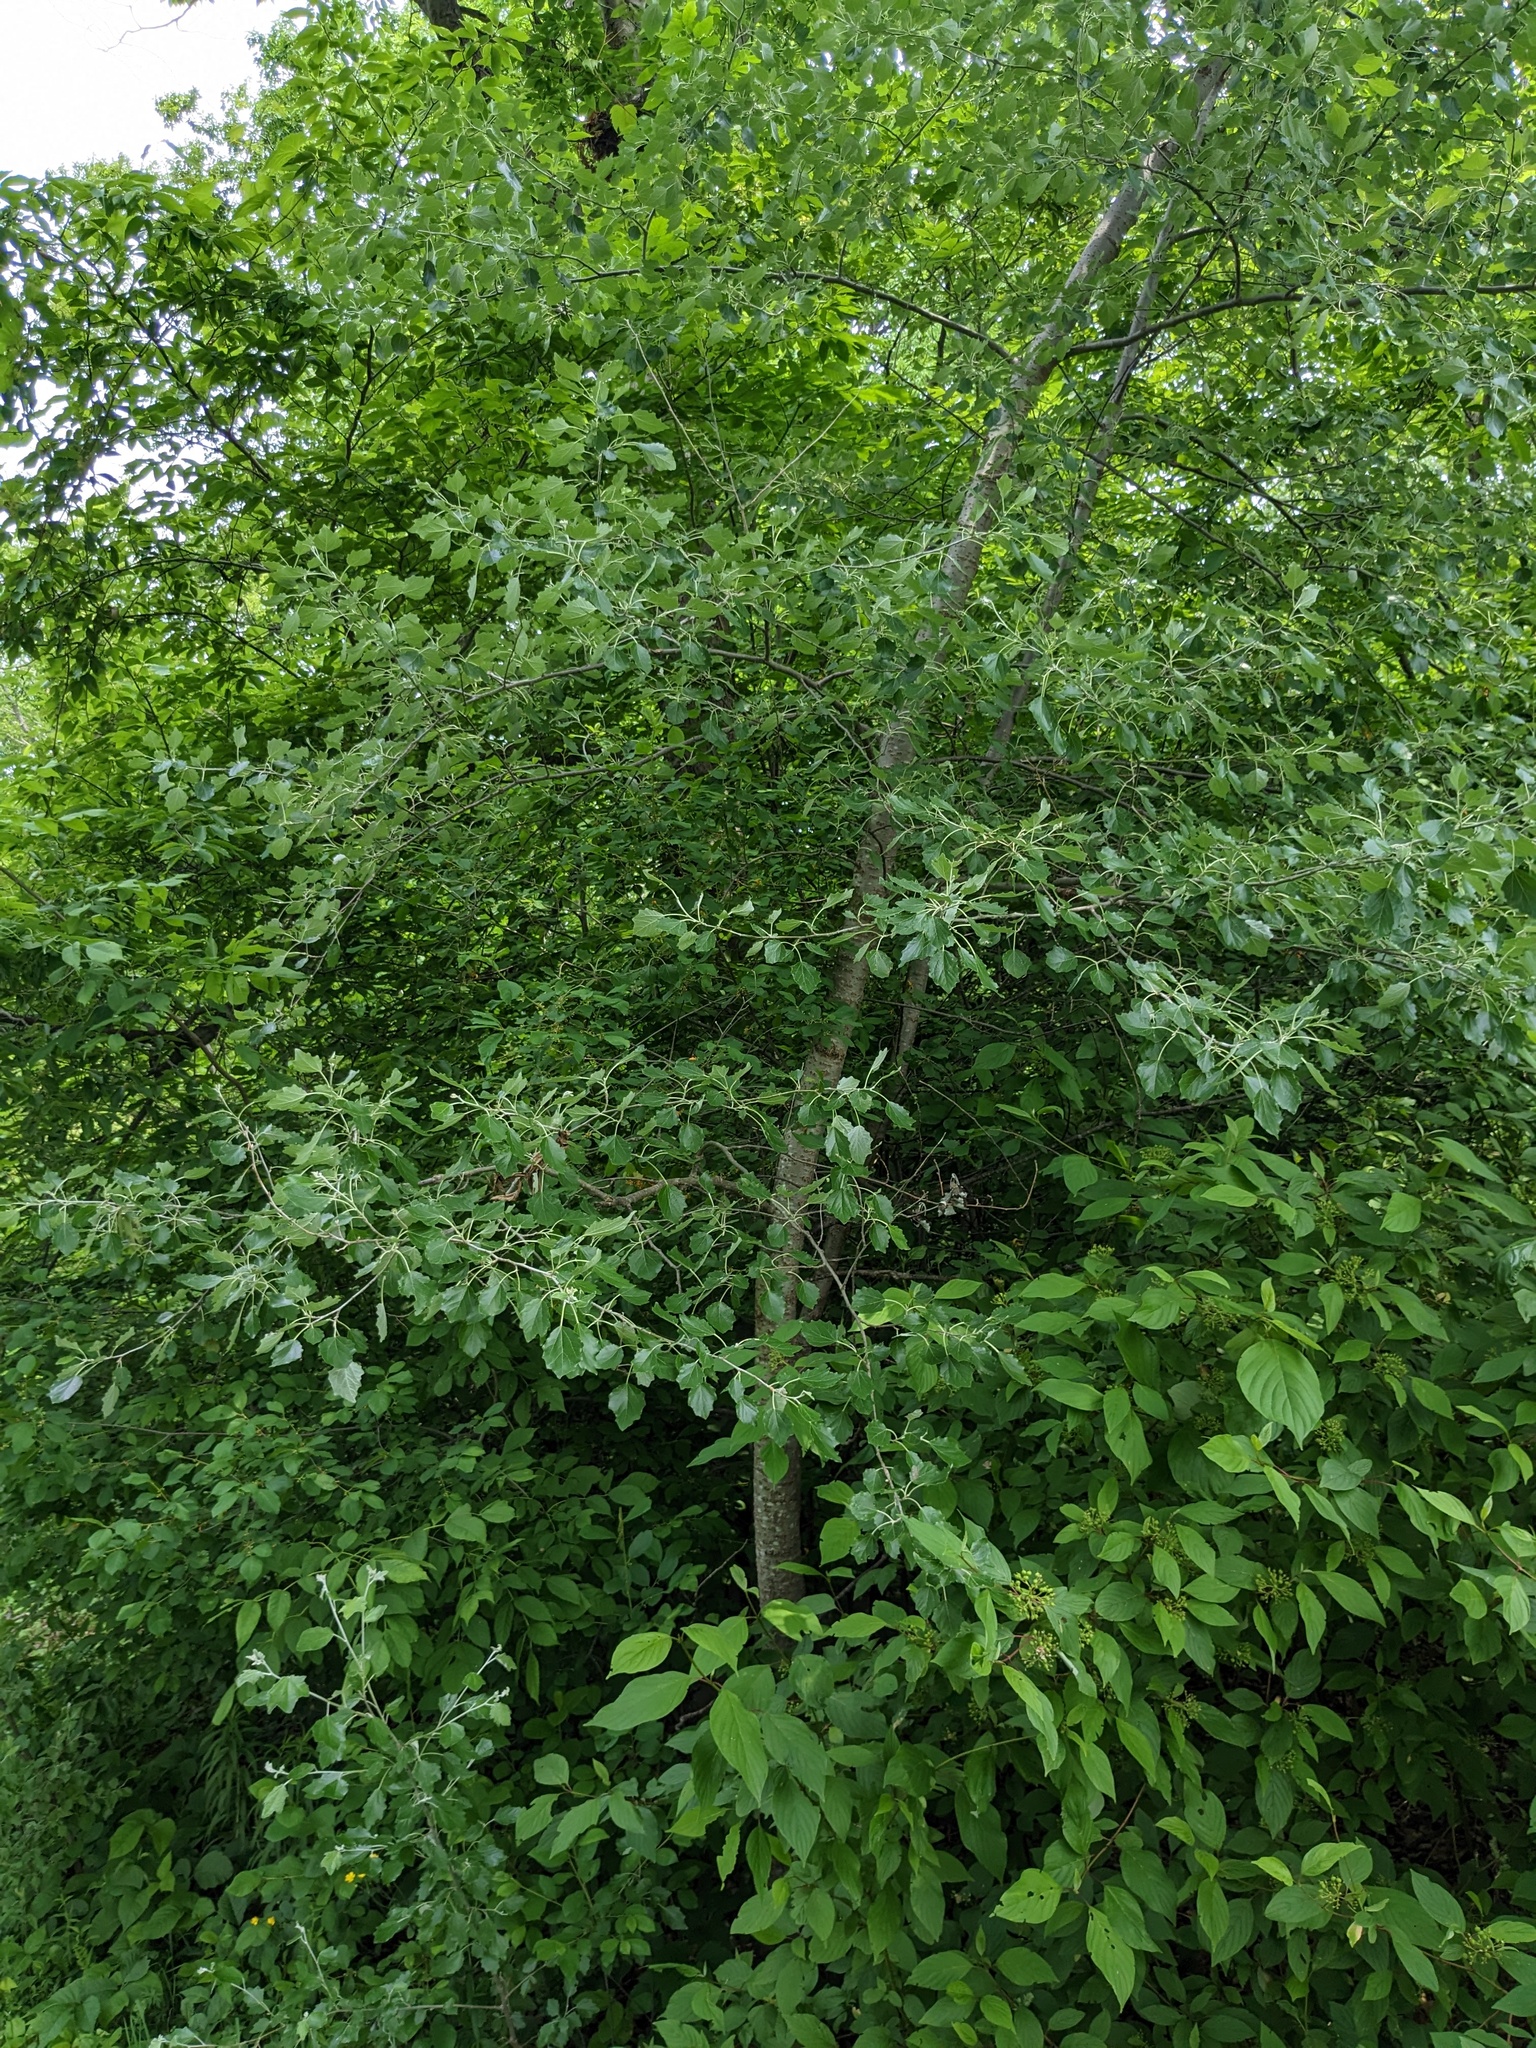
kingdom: Plantae
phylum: Tracheophyta
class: Magnoliopsida
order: Malpighiales
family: Salicaceae
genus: Populus
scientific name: Populus alba
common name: White poplar
